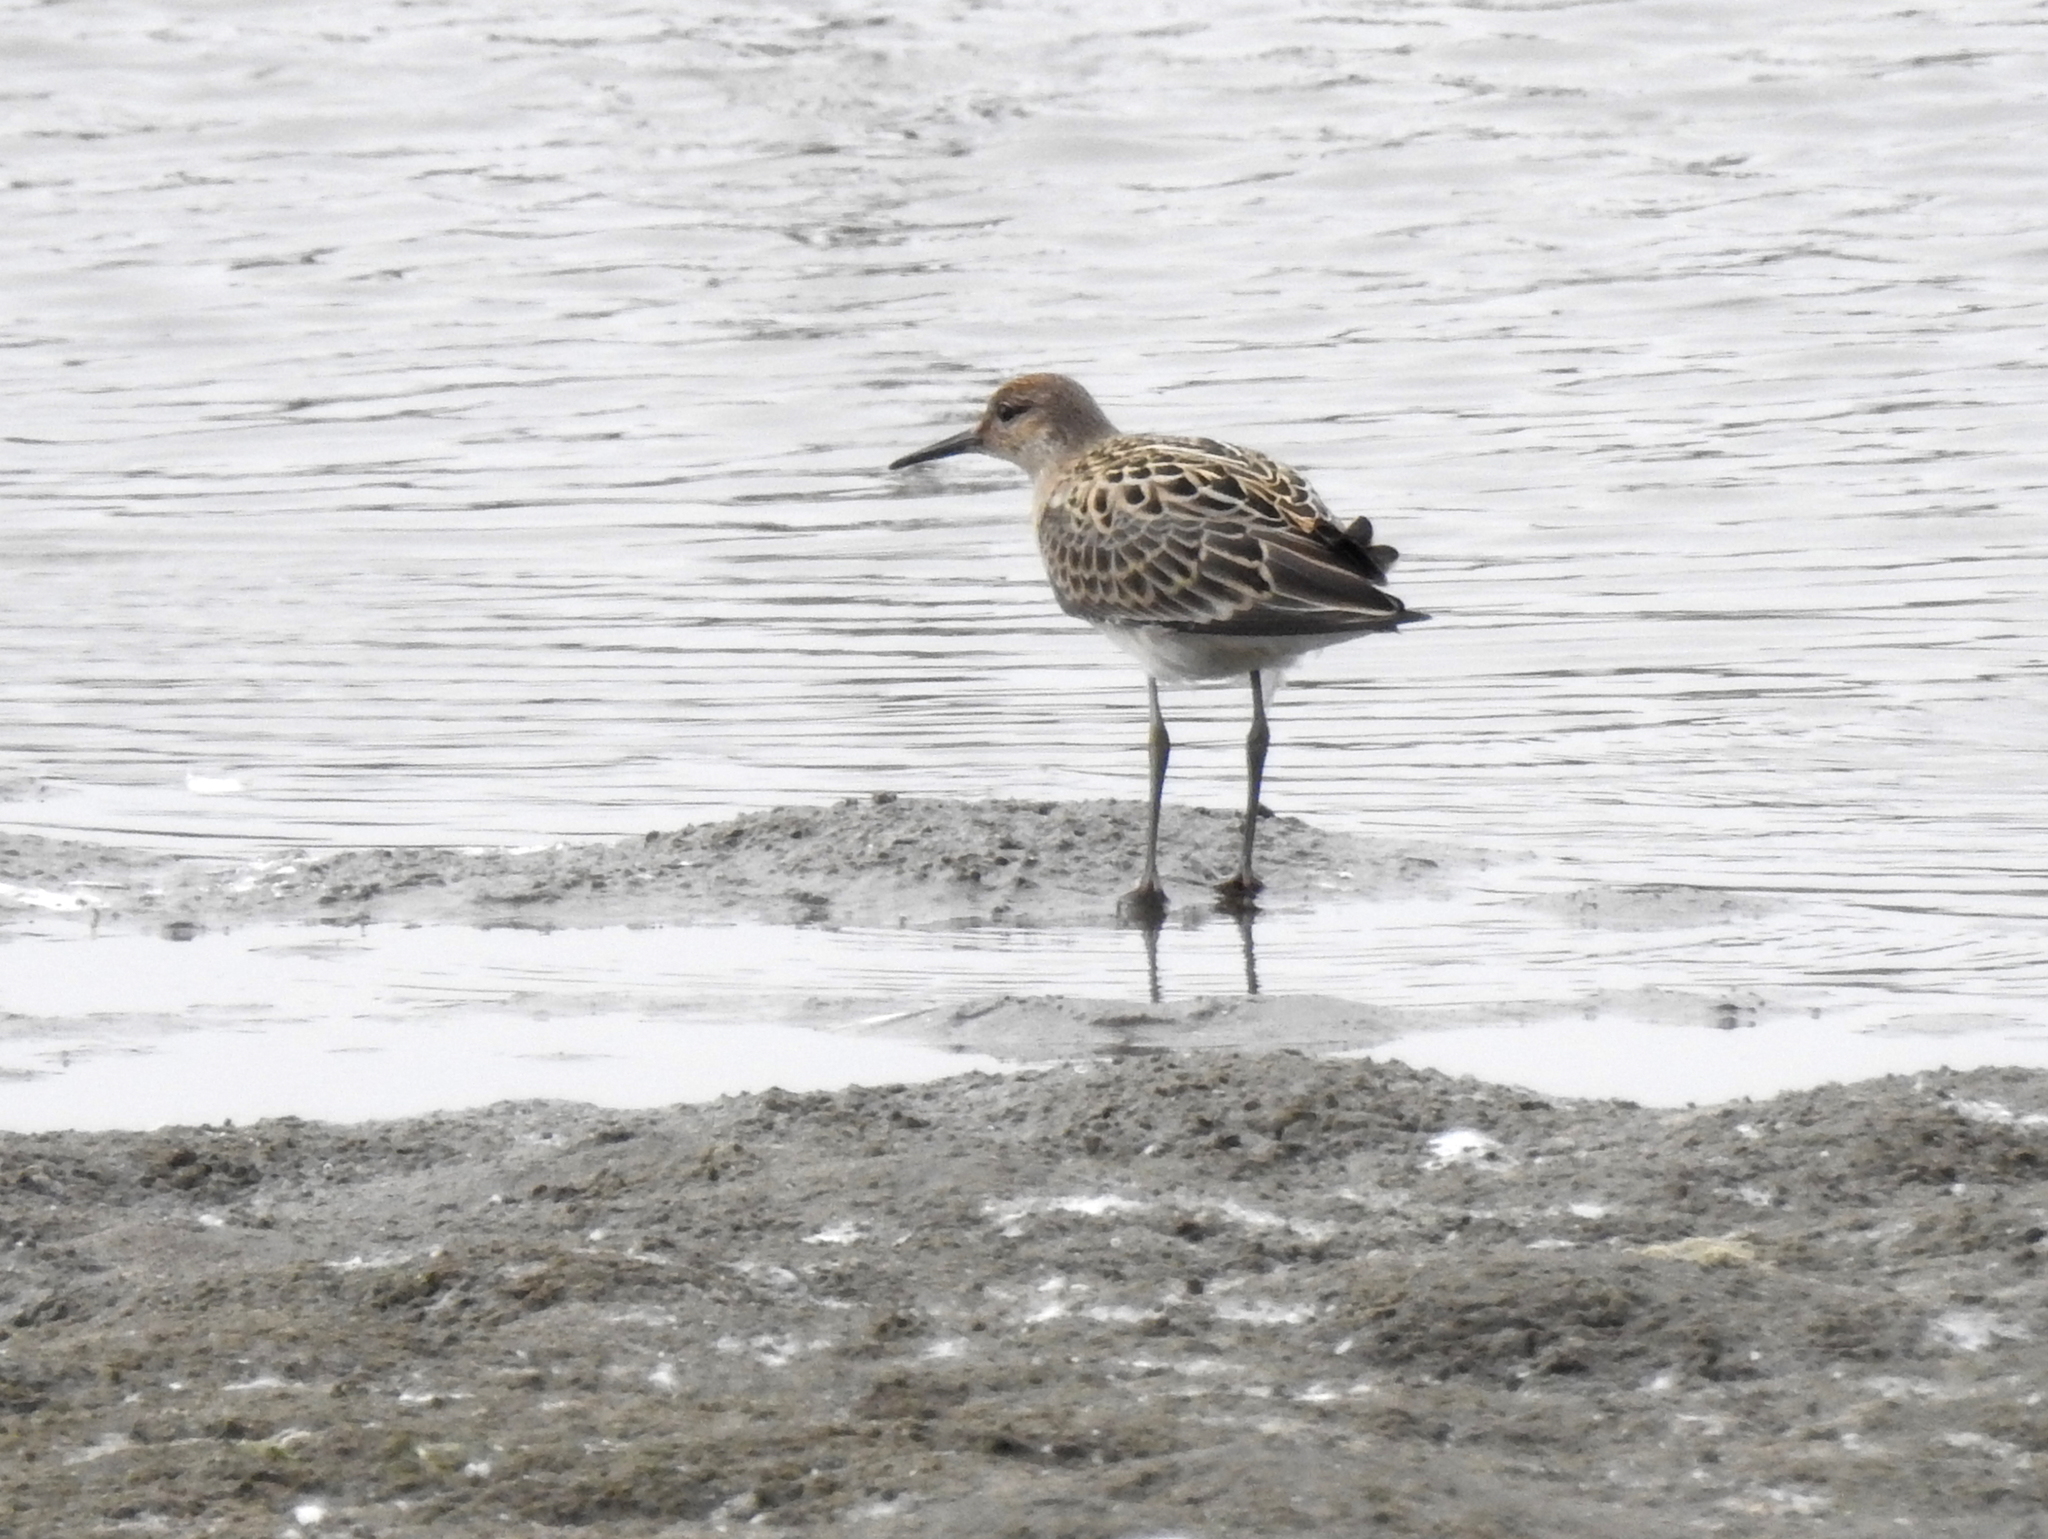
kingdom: Animalia
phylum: Chordata
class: Aves
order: Charadriiformes
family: Scolopacidae
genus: Calidris
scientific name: Calidris pugnax
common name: Ruff
